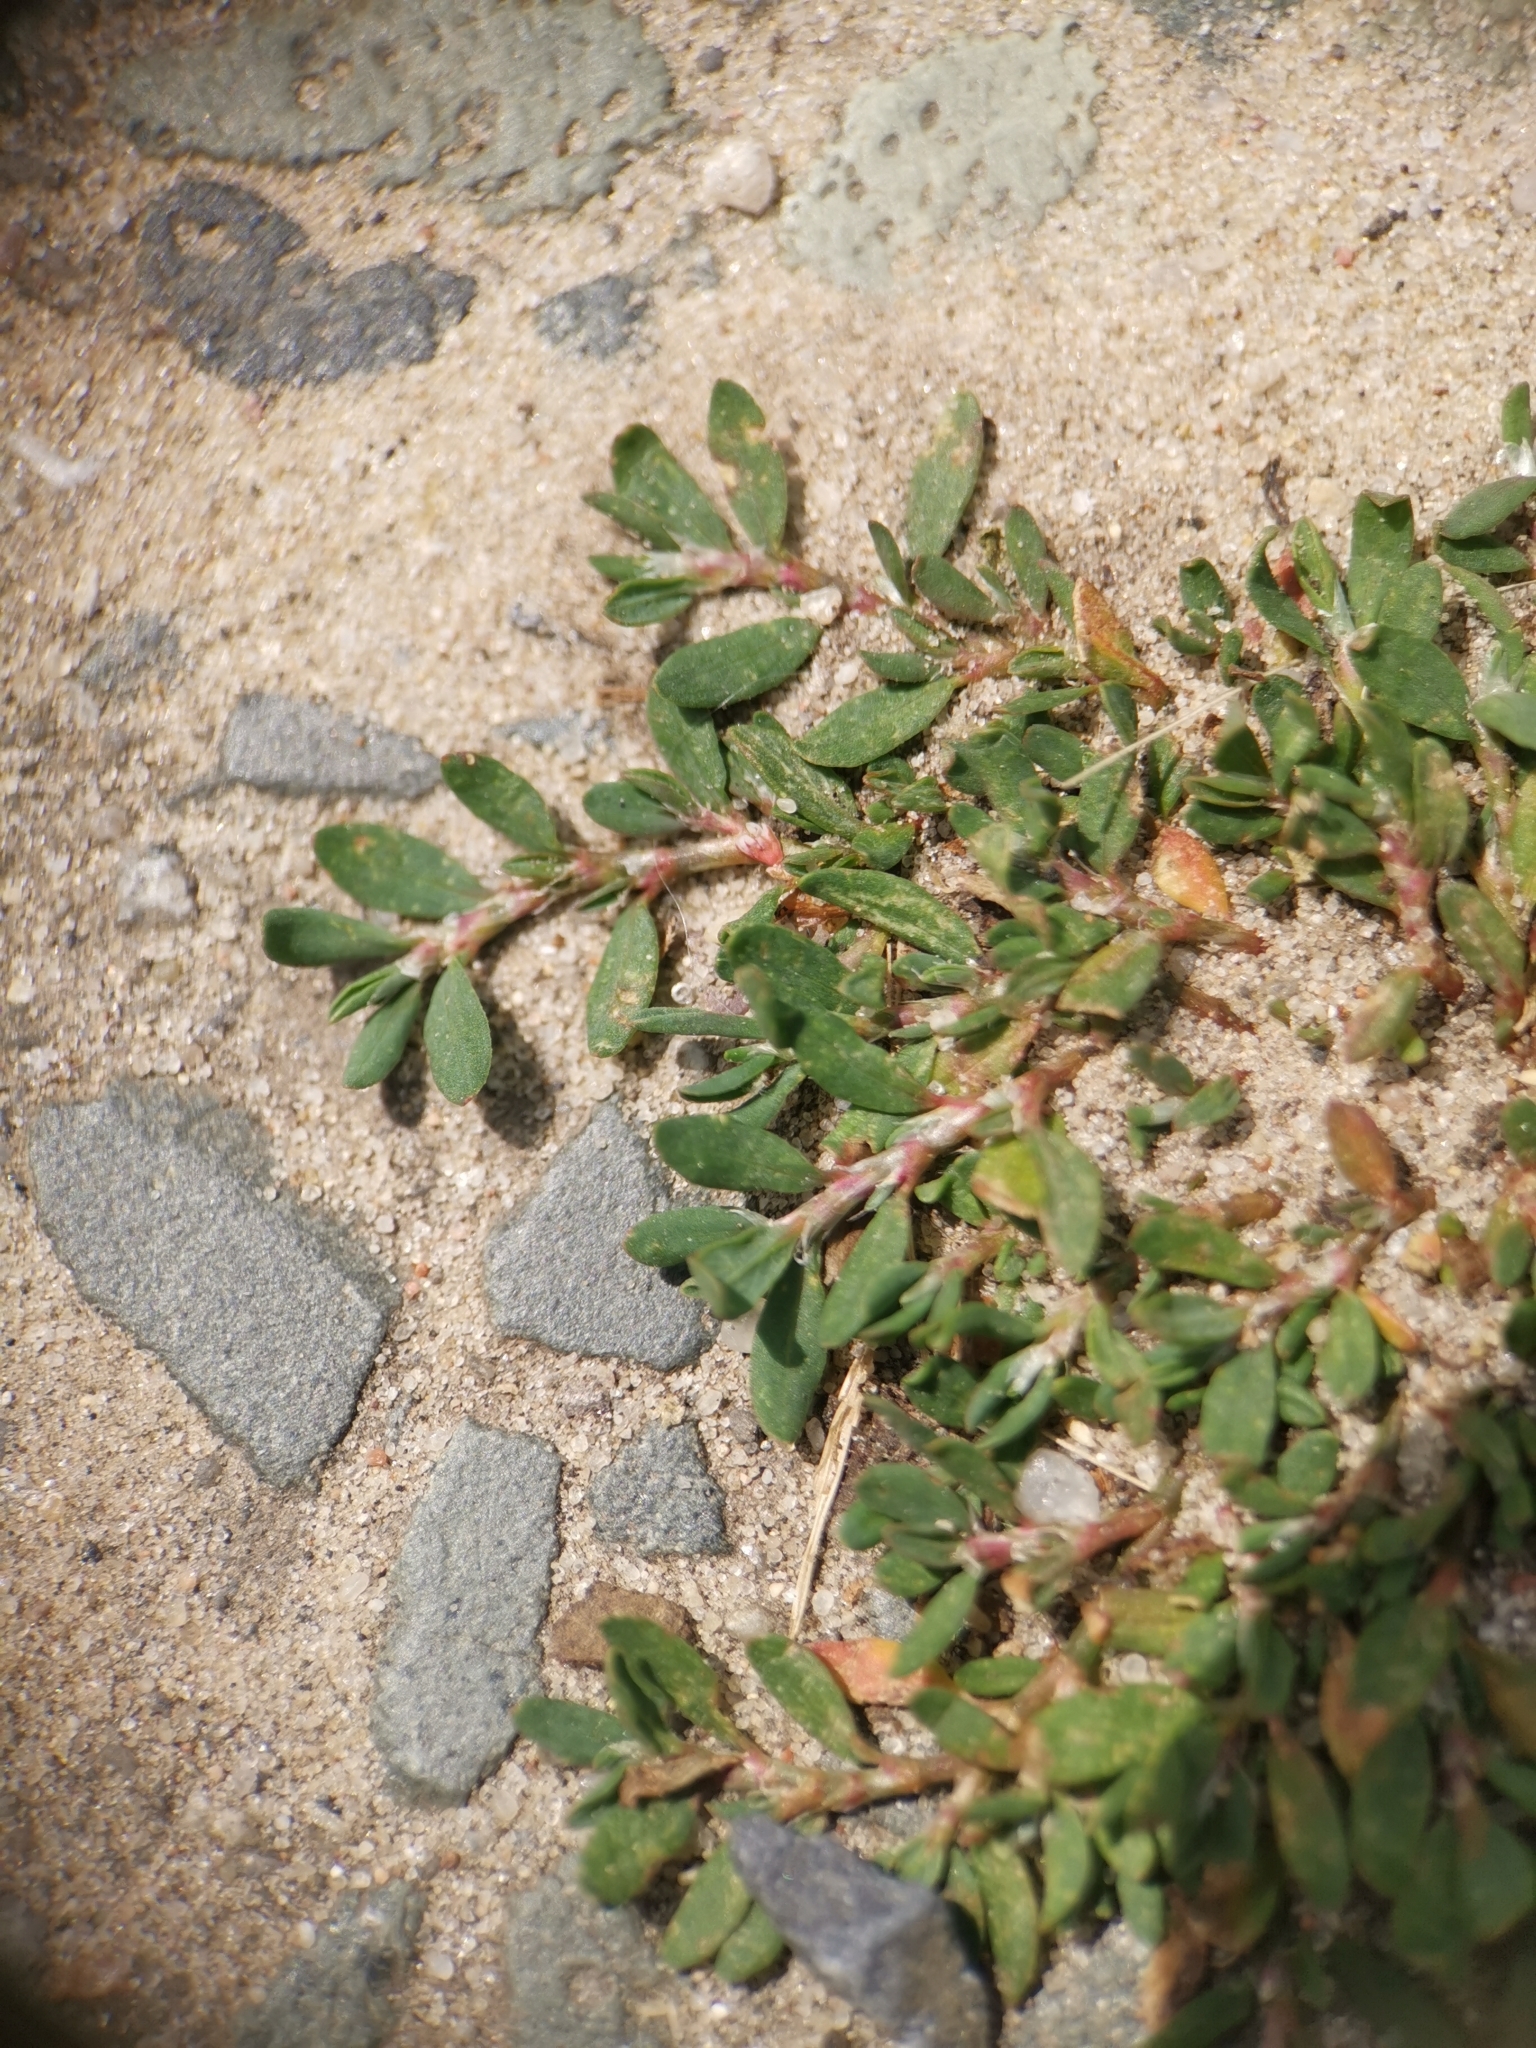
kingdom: Plantae
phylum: Tracheophyta
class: Magnoliopsida
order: Caryophyllales
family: Polygonaceae
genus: Polygonum
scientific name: Polygonum arenastrum
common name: Equal-leaved knotgrass
